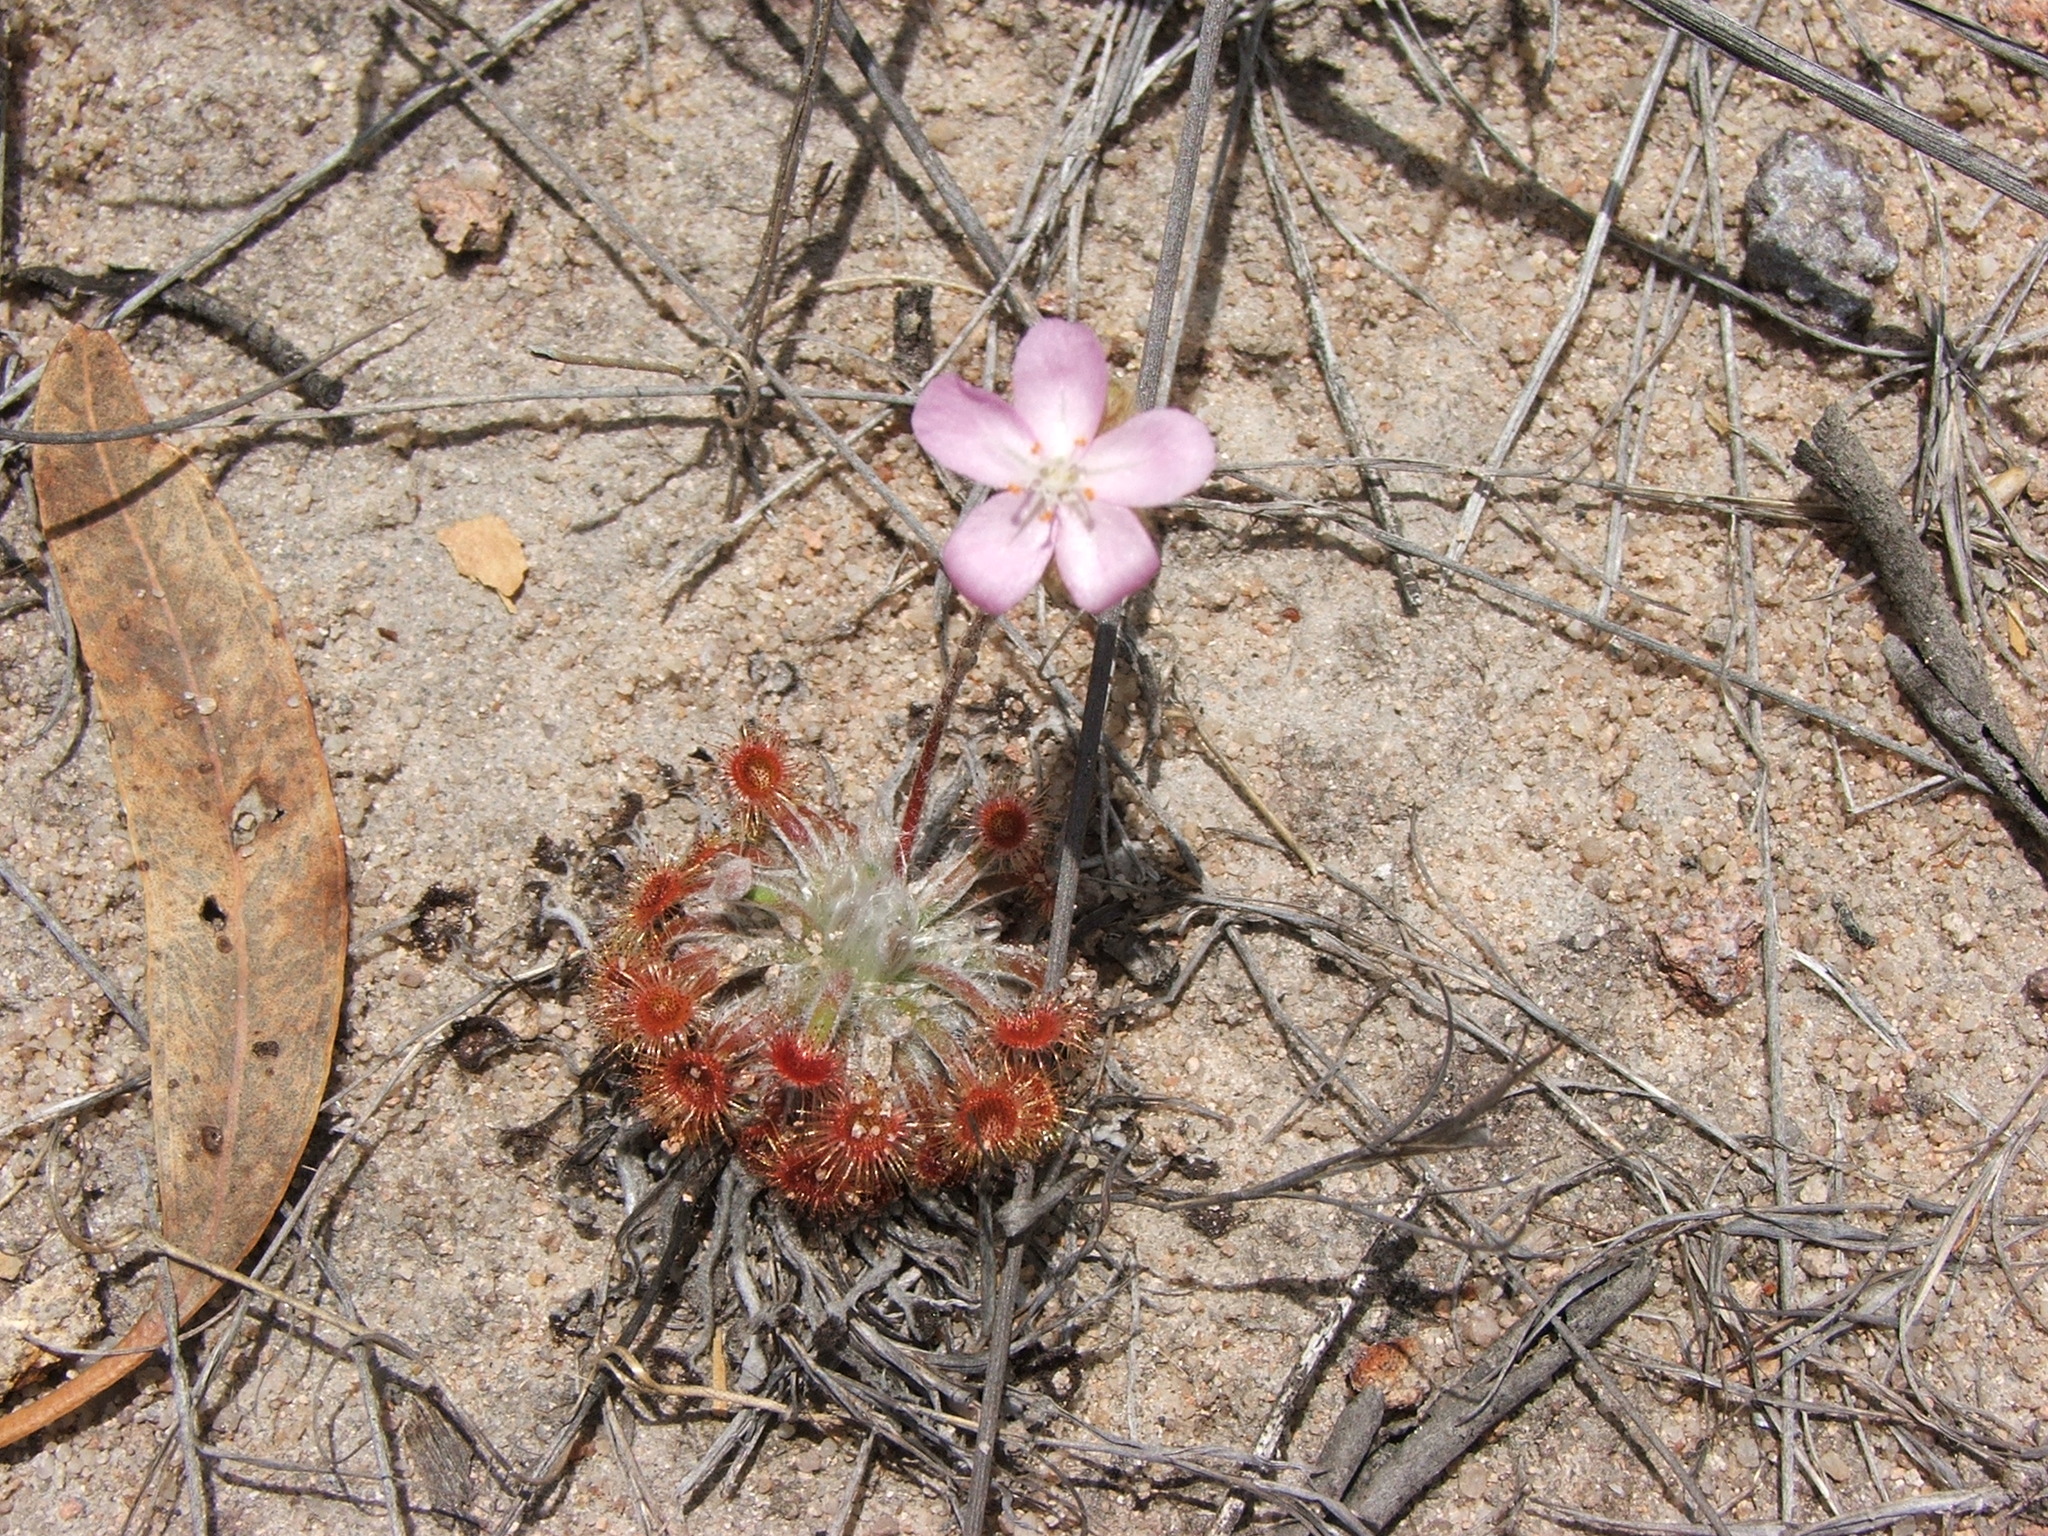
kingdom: Plantae
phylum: Tracheophyta
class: Magnoliopsida
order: Caryophyllales
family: Droseraceae
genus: Drosera
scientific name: Drosera ordensis
